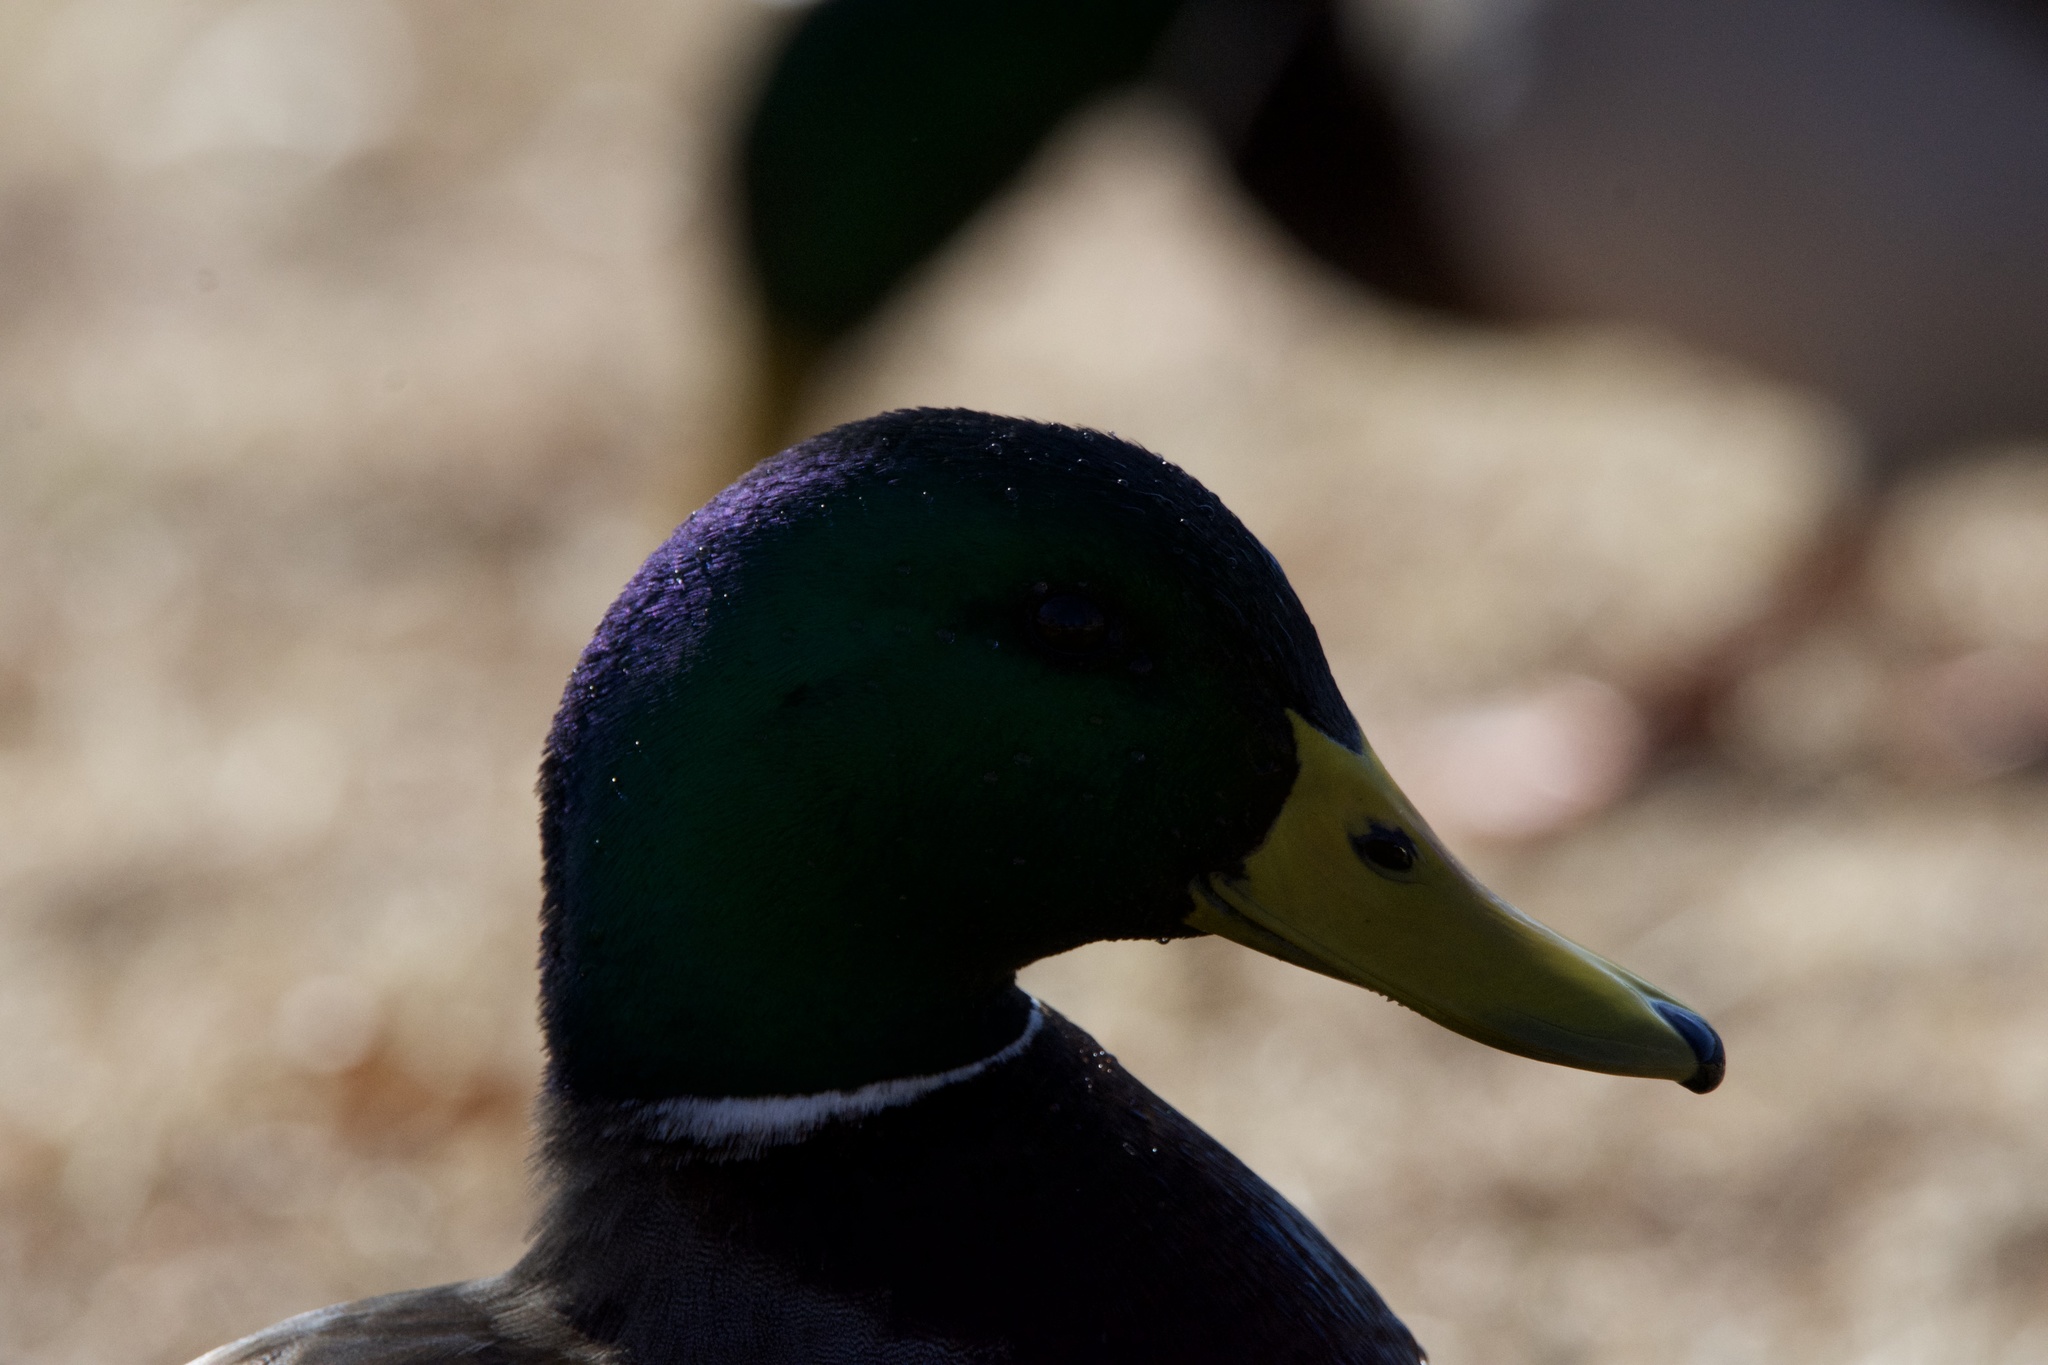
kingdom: Animalia
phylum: Chordata
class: Aves
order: Anseriformes
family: Anatidae
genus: Anas
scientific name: Anas platyrhynchos
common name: Mallard
